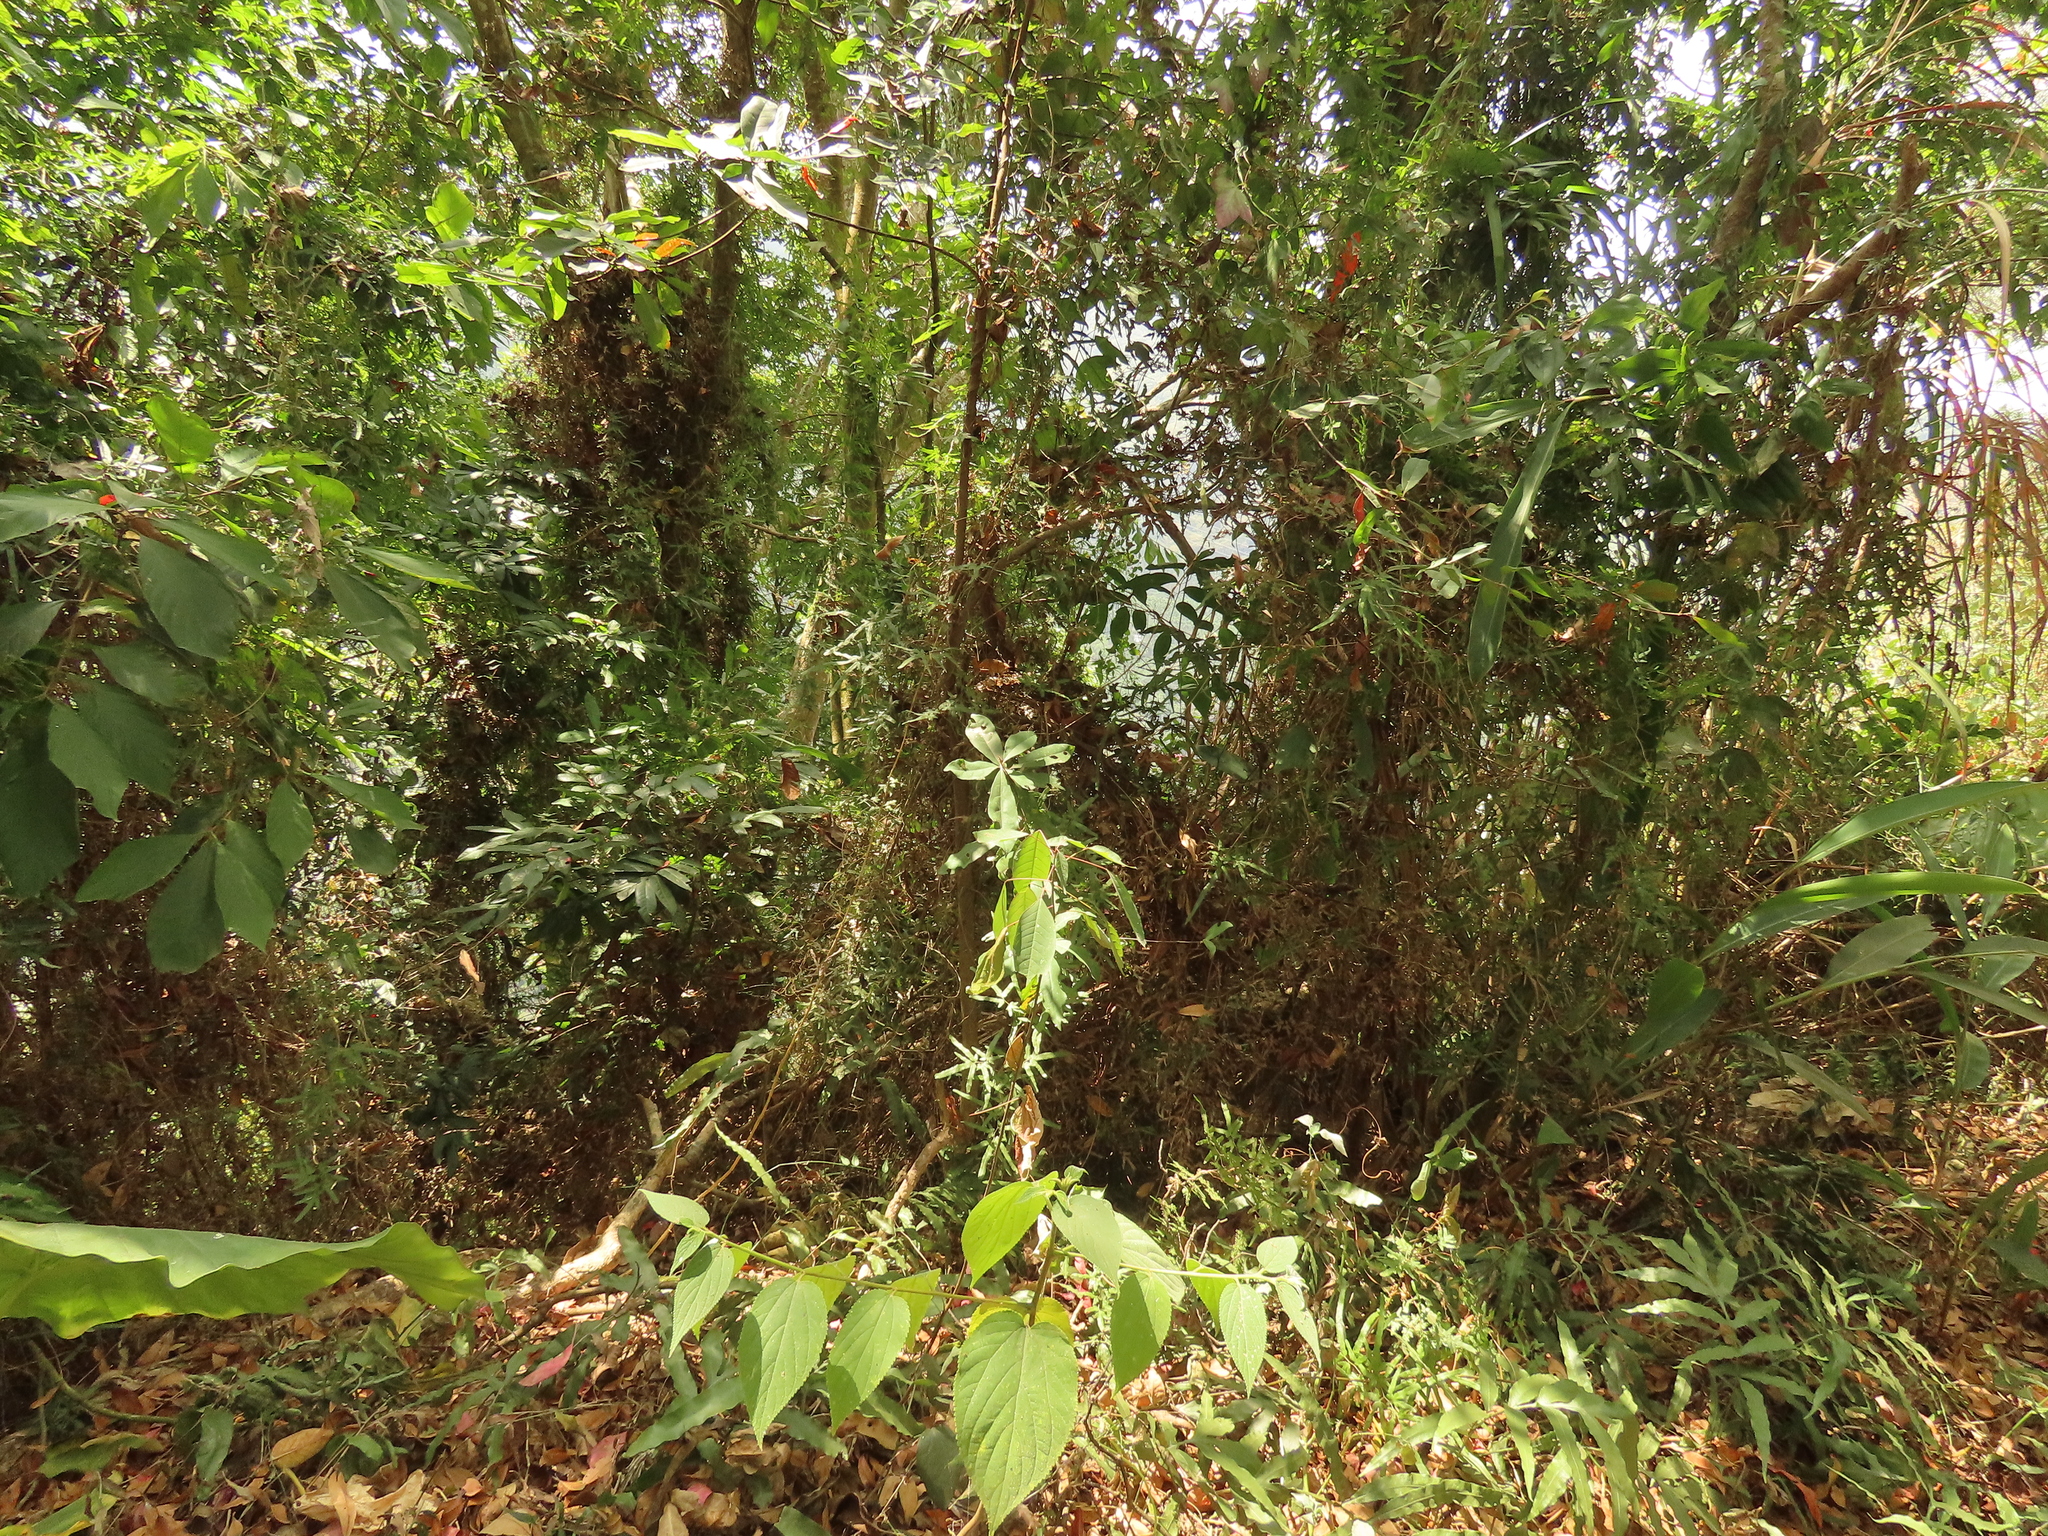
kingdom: Plantae
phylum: Tracheophyta
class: Magnoliopsida
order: Malpighiales
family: Euphorbiaceae
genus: Triadica
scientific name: Triadica cochinchinensis
